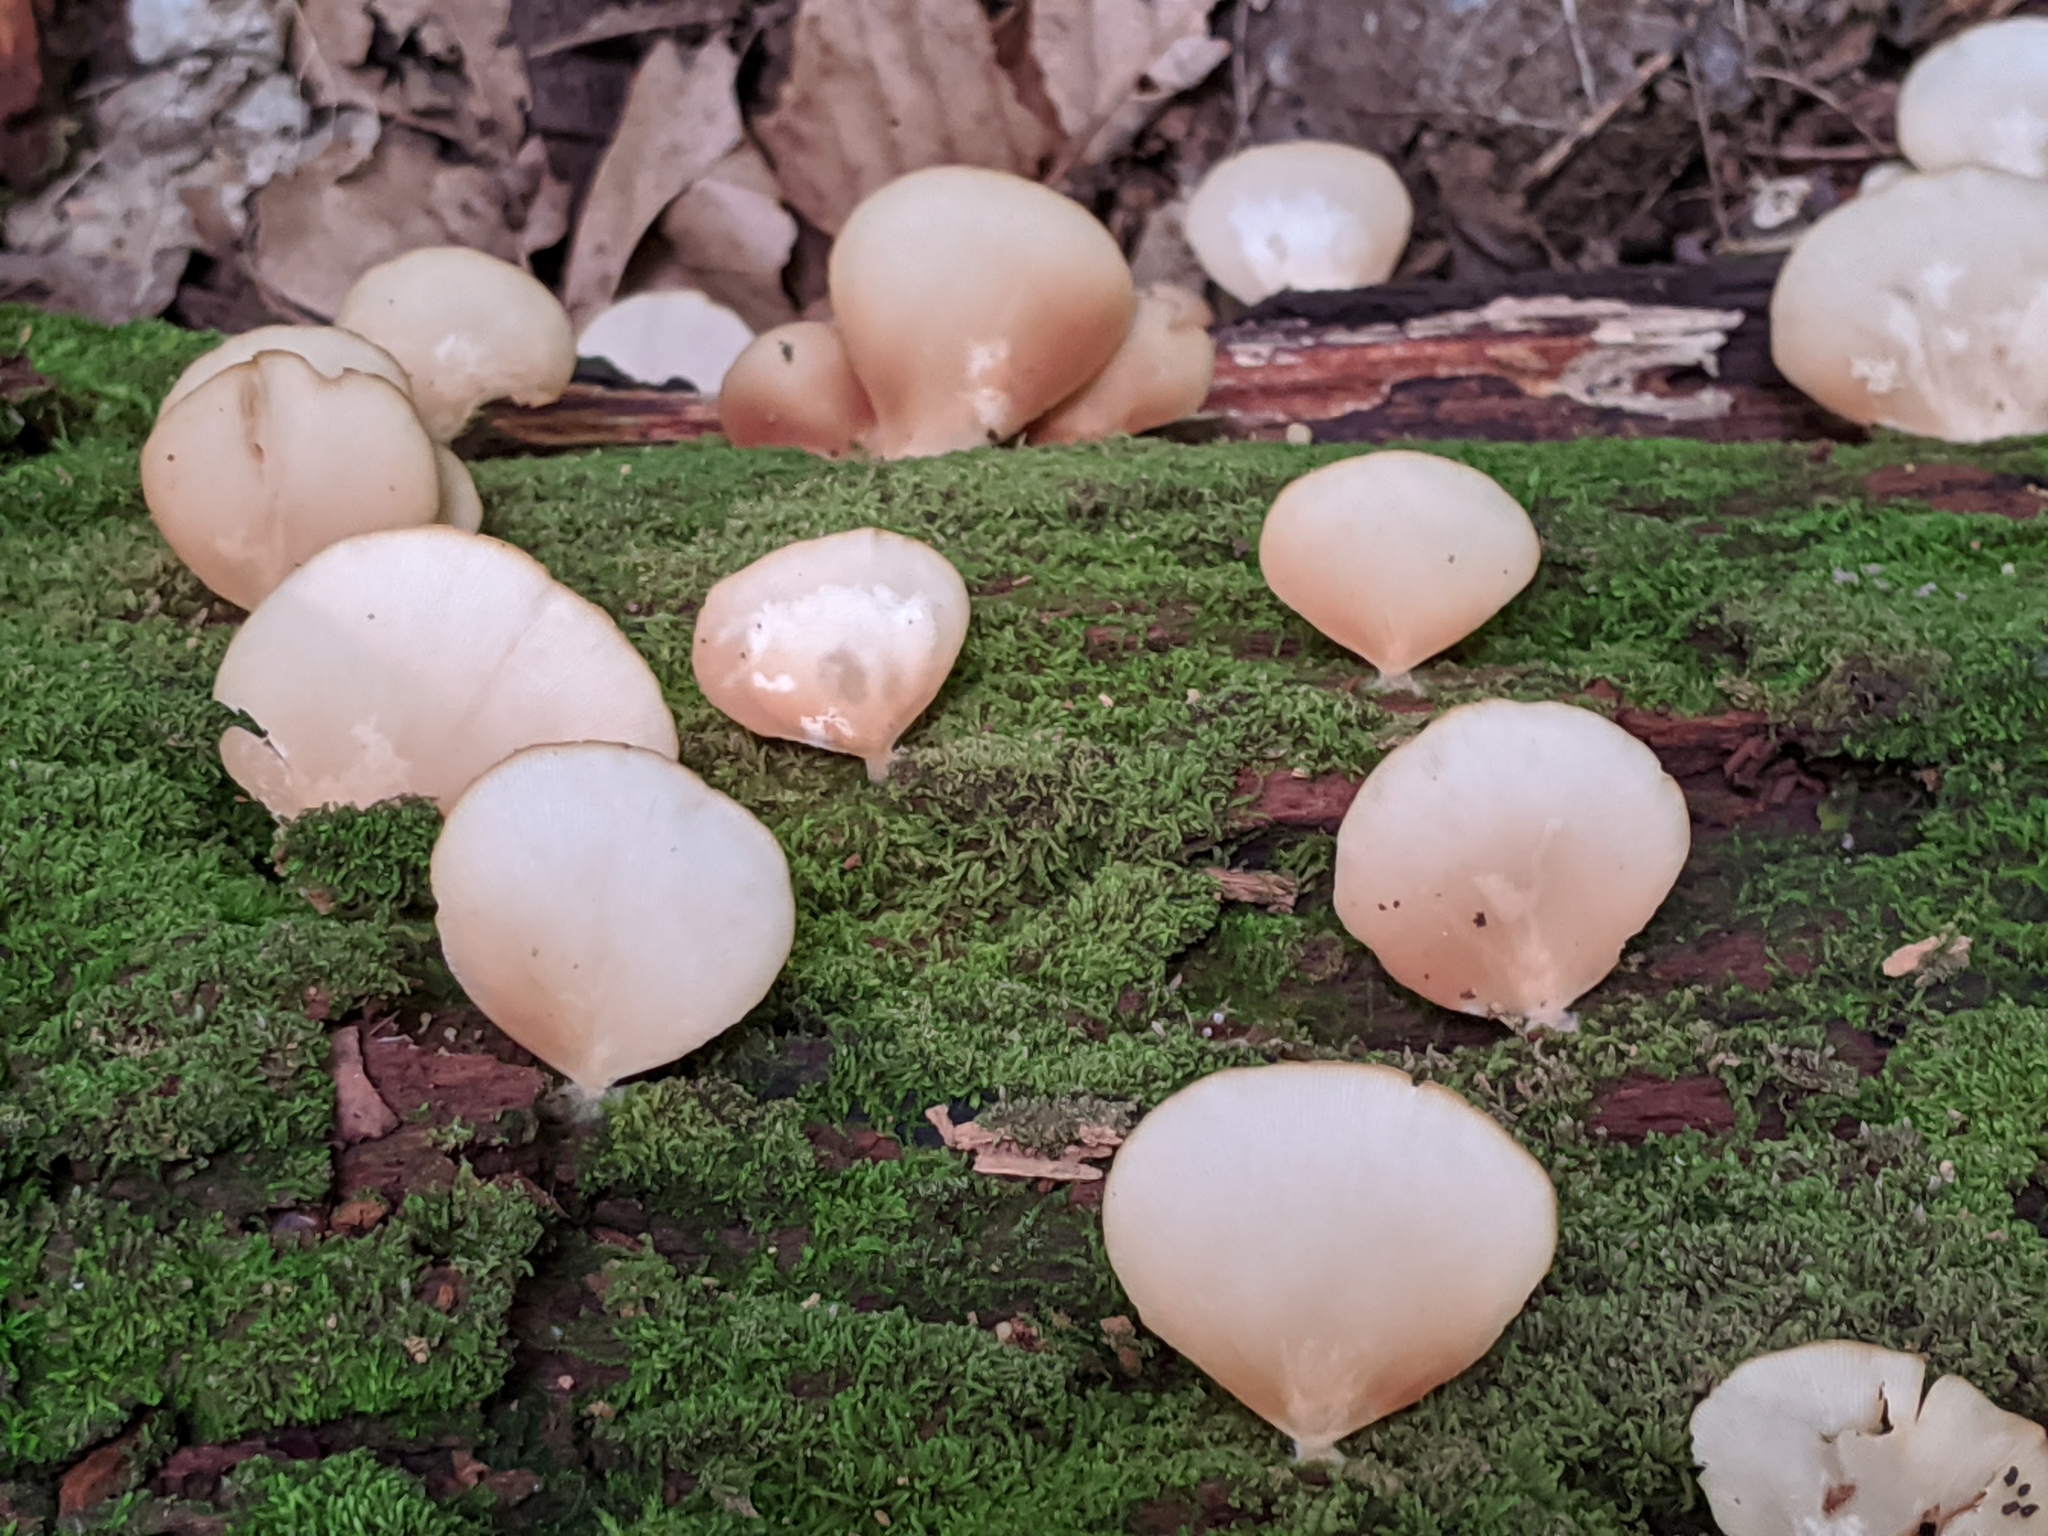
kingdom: Fungi
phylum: Basidiomycota
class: Agaricomycetes
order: Agaricales
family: Crepidotaceae
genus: Crepidotus
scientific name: Crepidotus applanatus
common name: Flat crep
